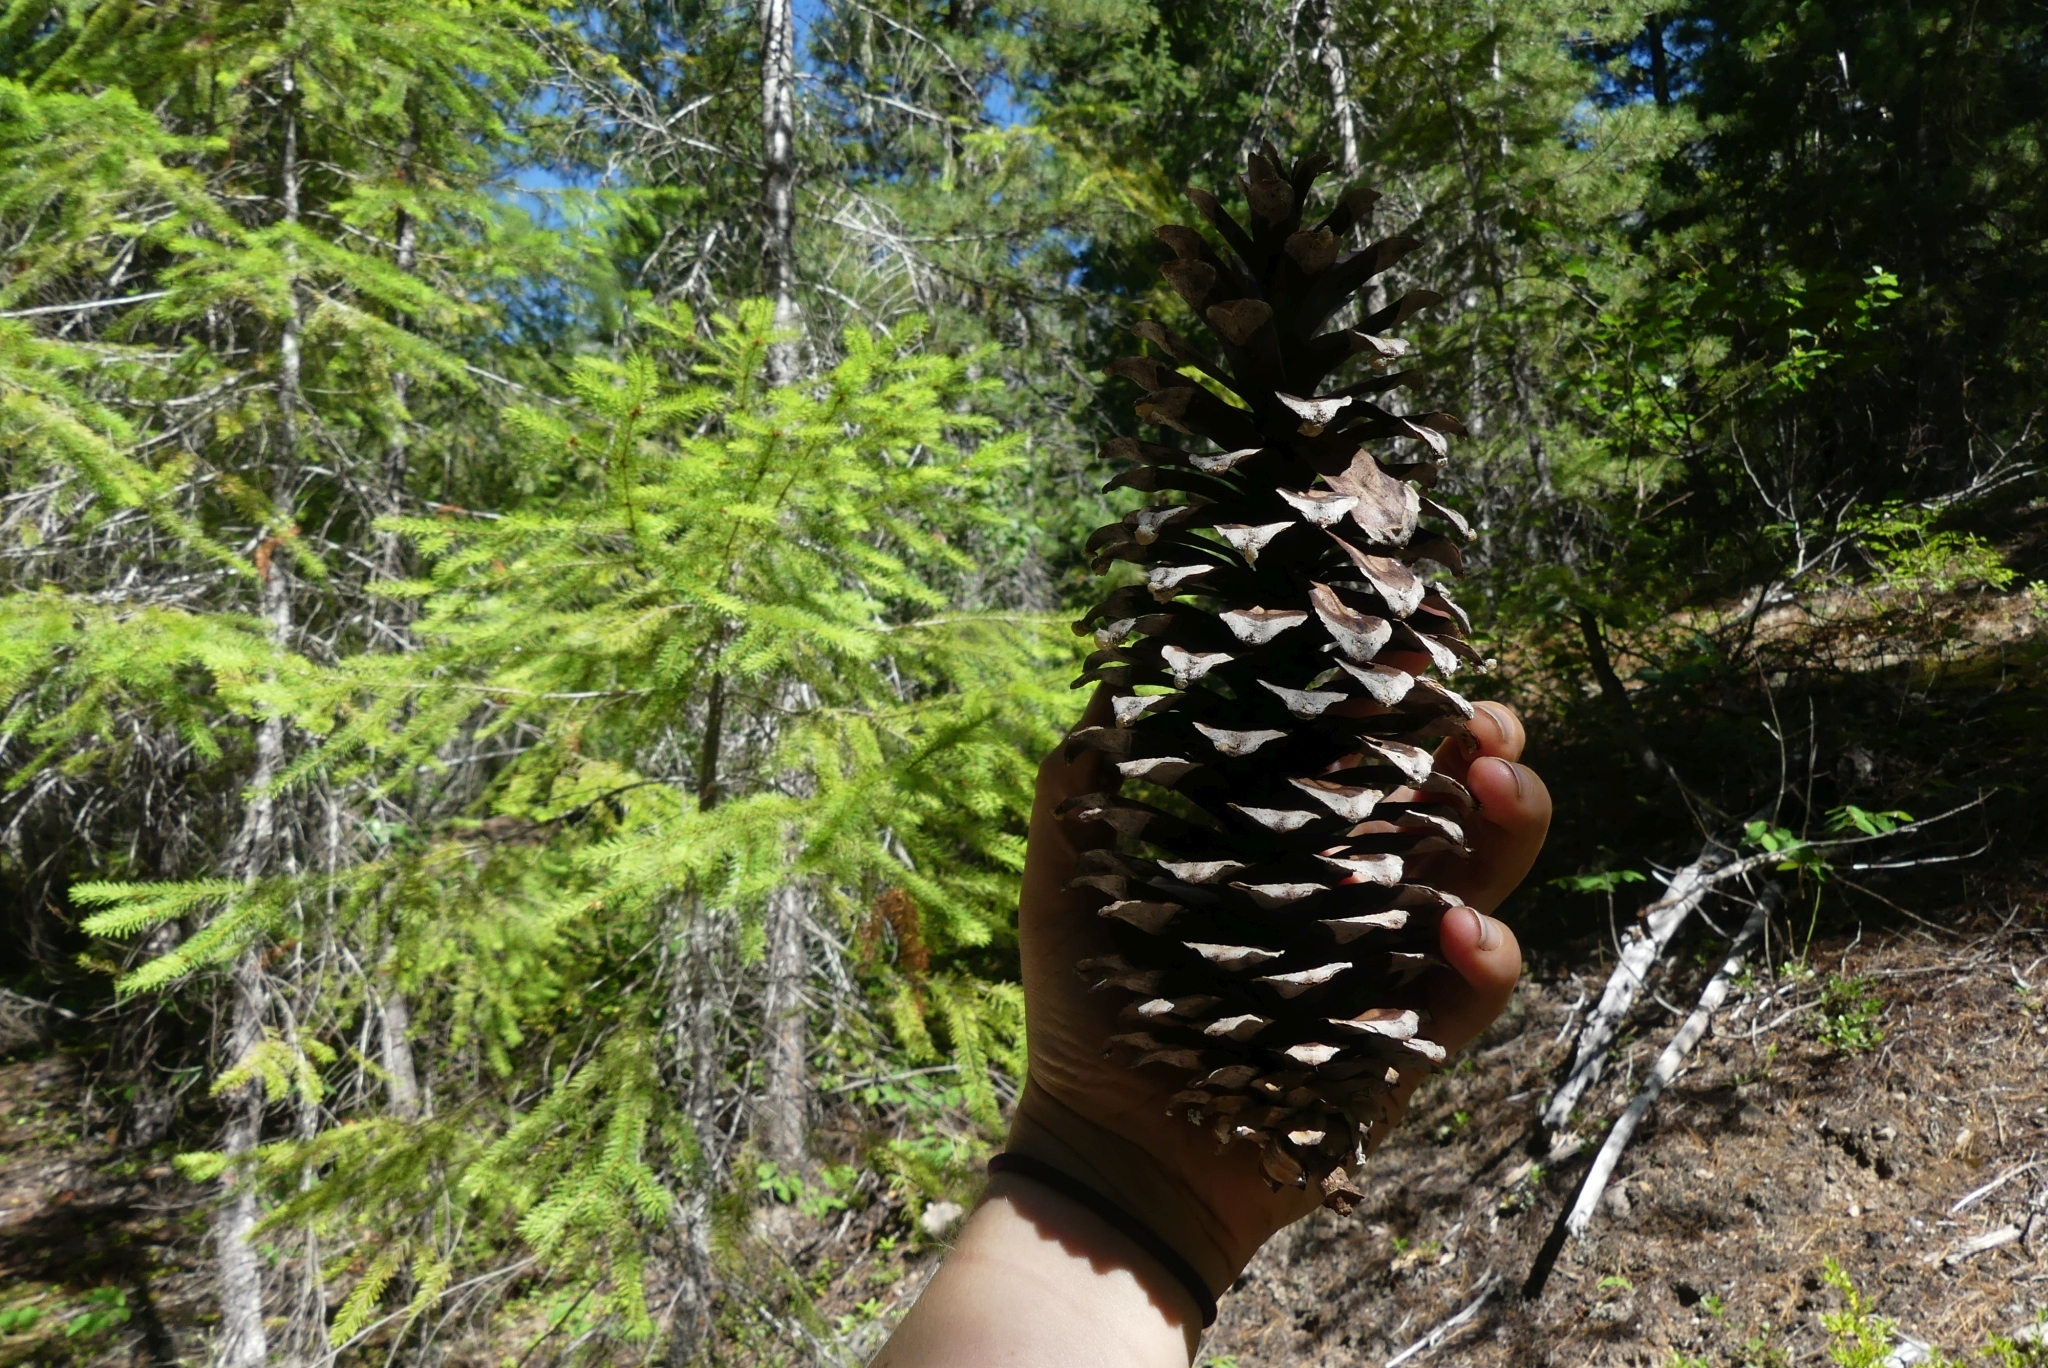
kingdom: Plantae
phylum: Tracheophyta
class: Pinopsida
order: Pinales
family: Pinaceae
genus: Pinus
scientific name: Pinus monticola
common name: Western white pine
